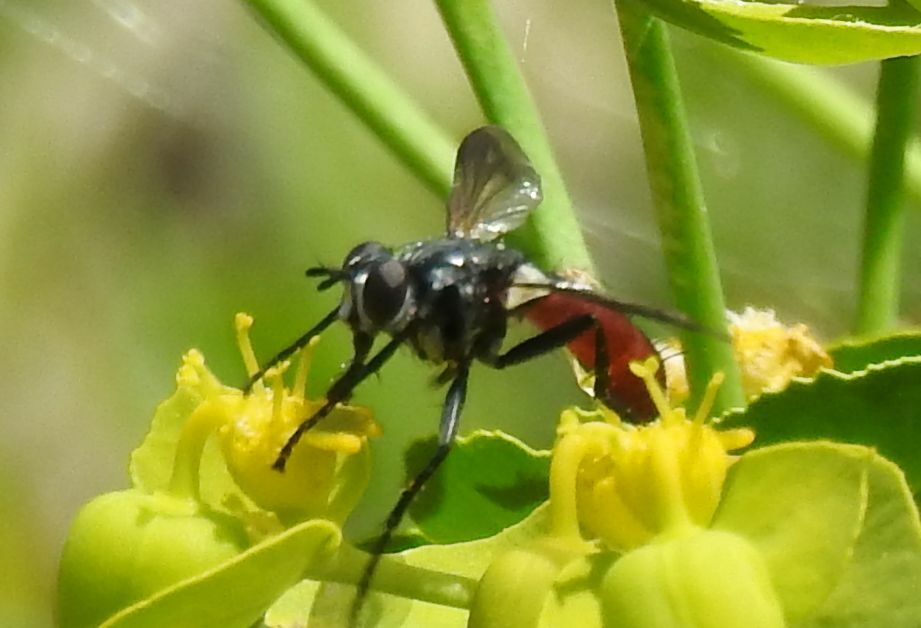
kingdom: Animalia
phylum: Arthropoda
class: Insecta
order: Diptera
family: Tachinidae
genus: Cylindromyia
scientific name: Cylindromyia bicolor
